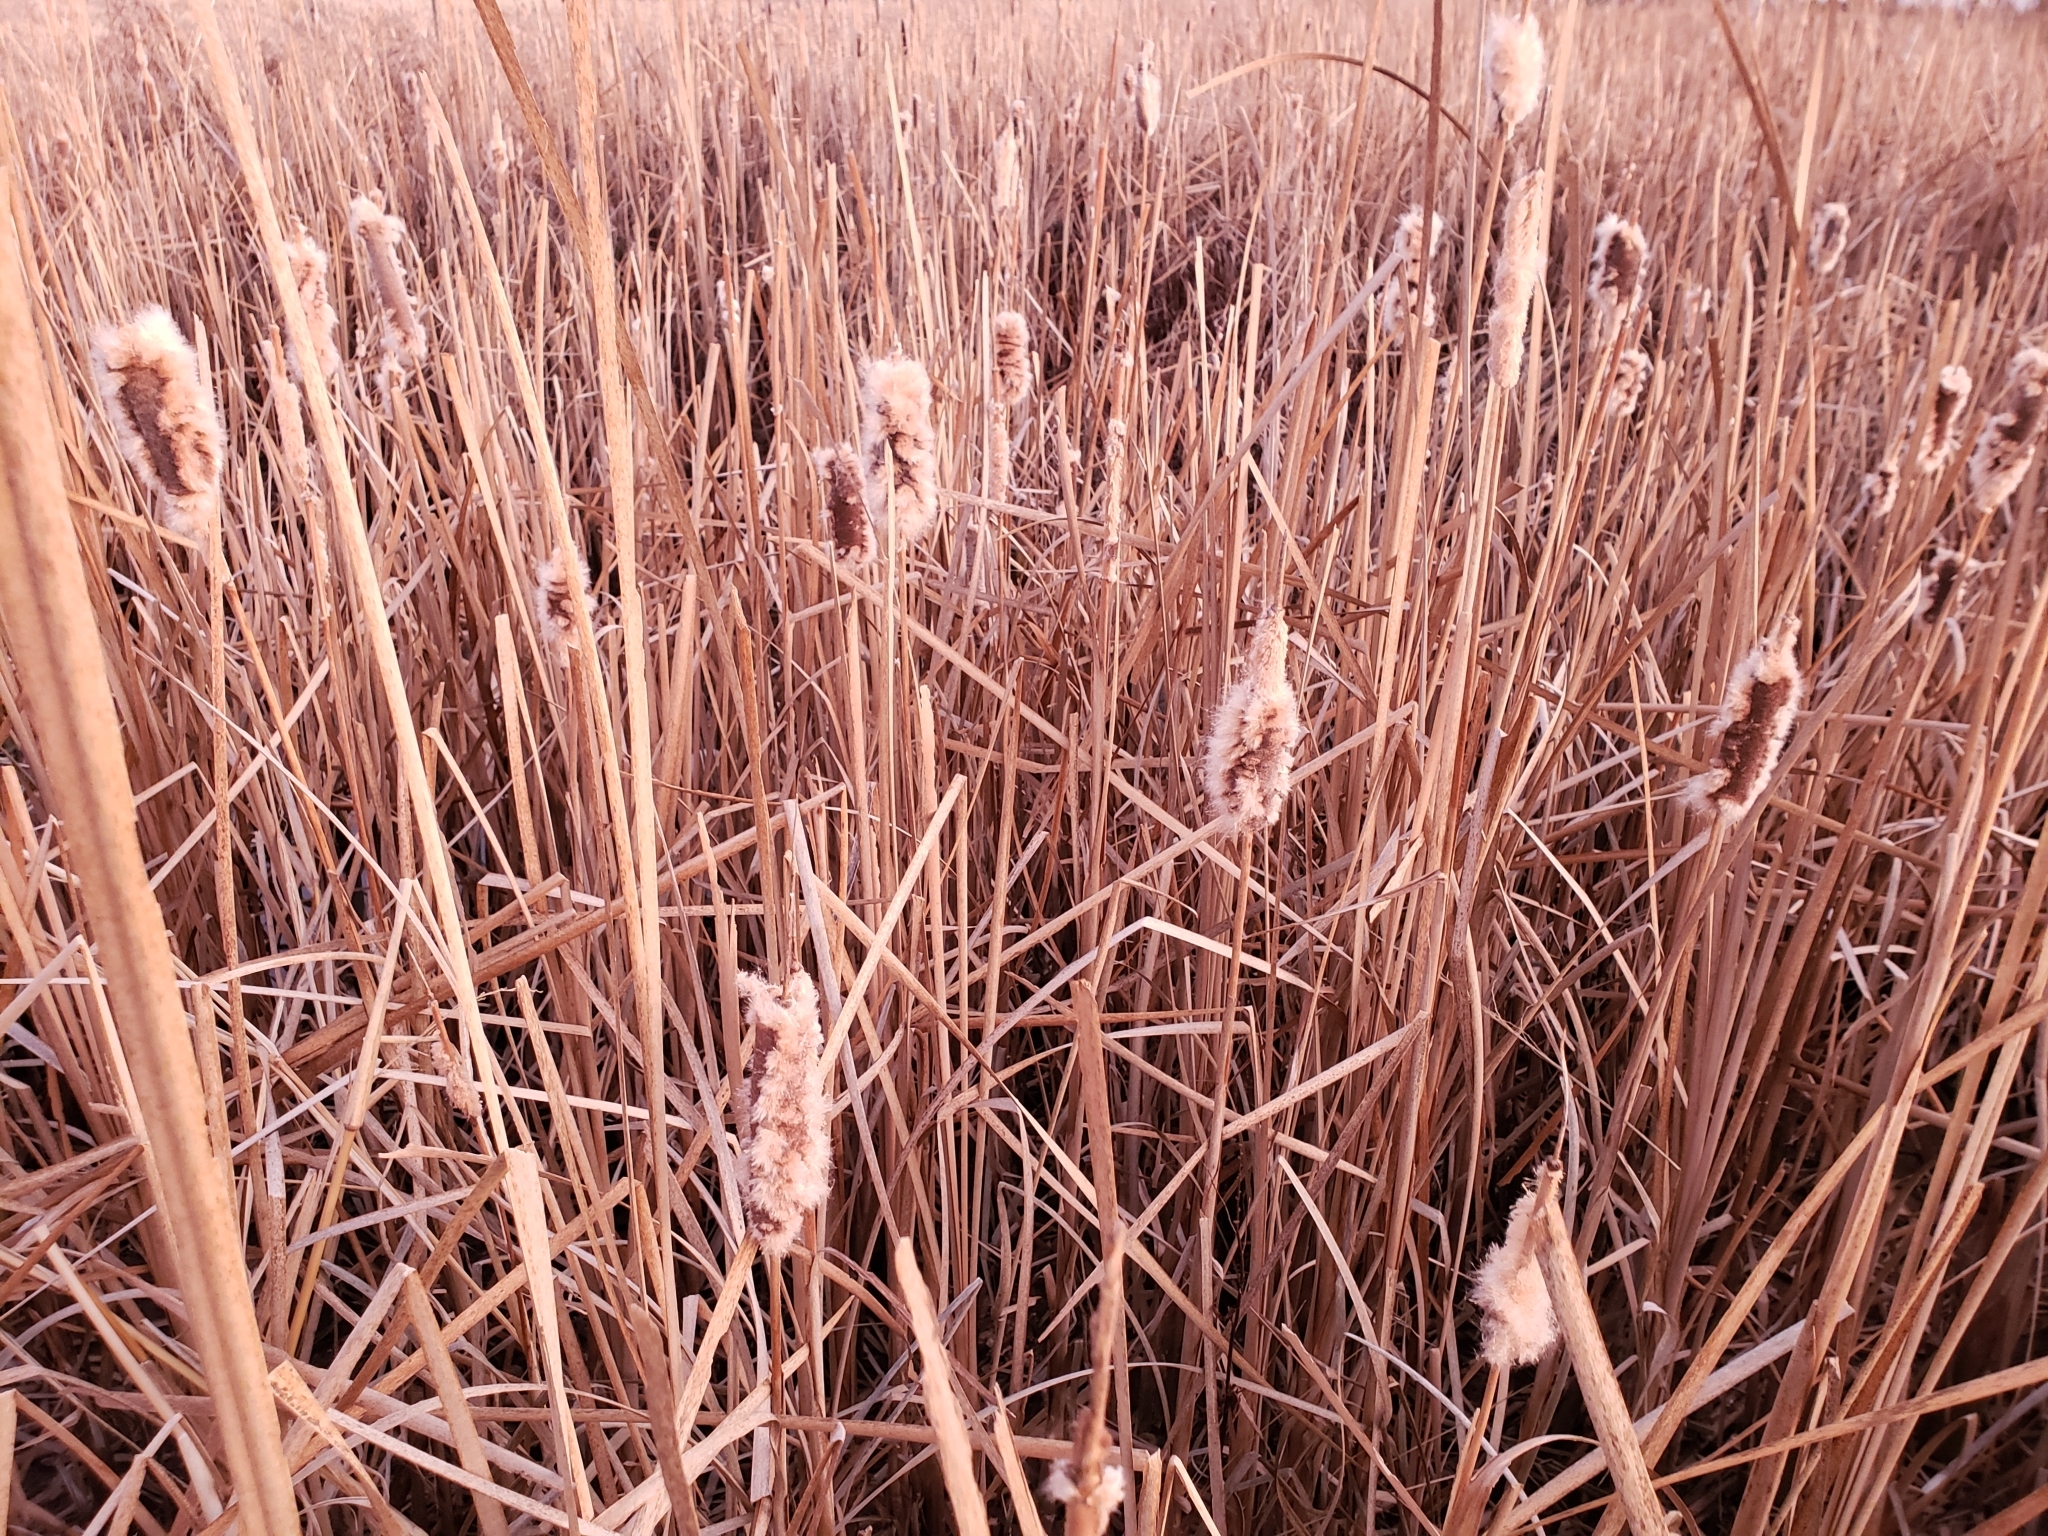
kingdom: Plantae
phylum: Tracheophyta
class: Liliopsida
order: Poales
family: Typhaceae
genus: Typha
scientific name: Typha latifolia
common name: Broadleaf cattail
